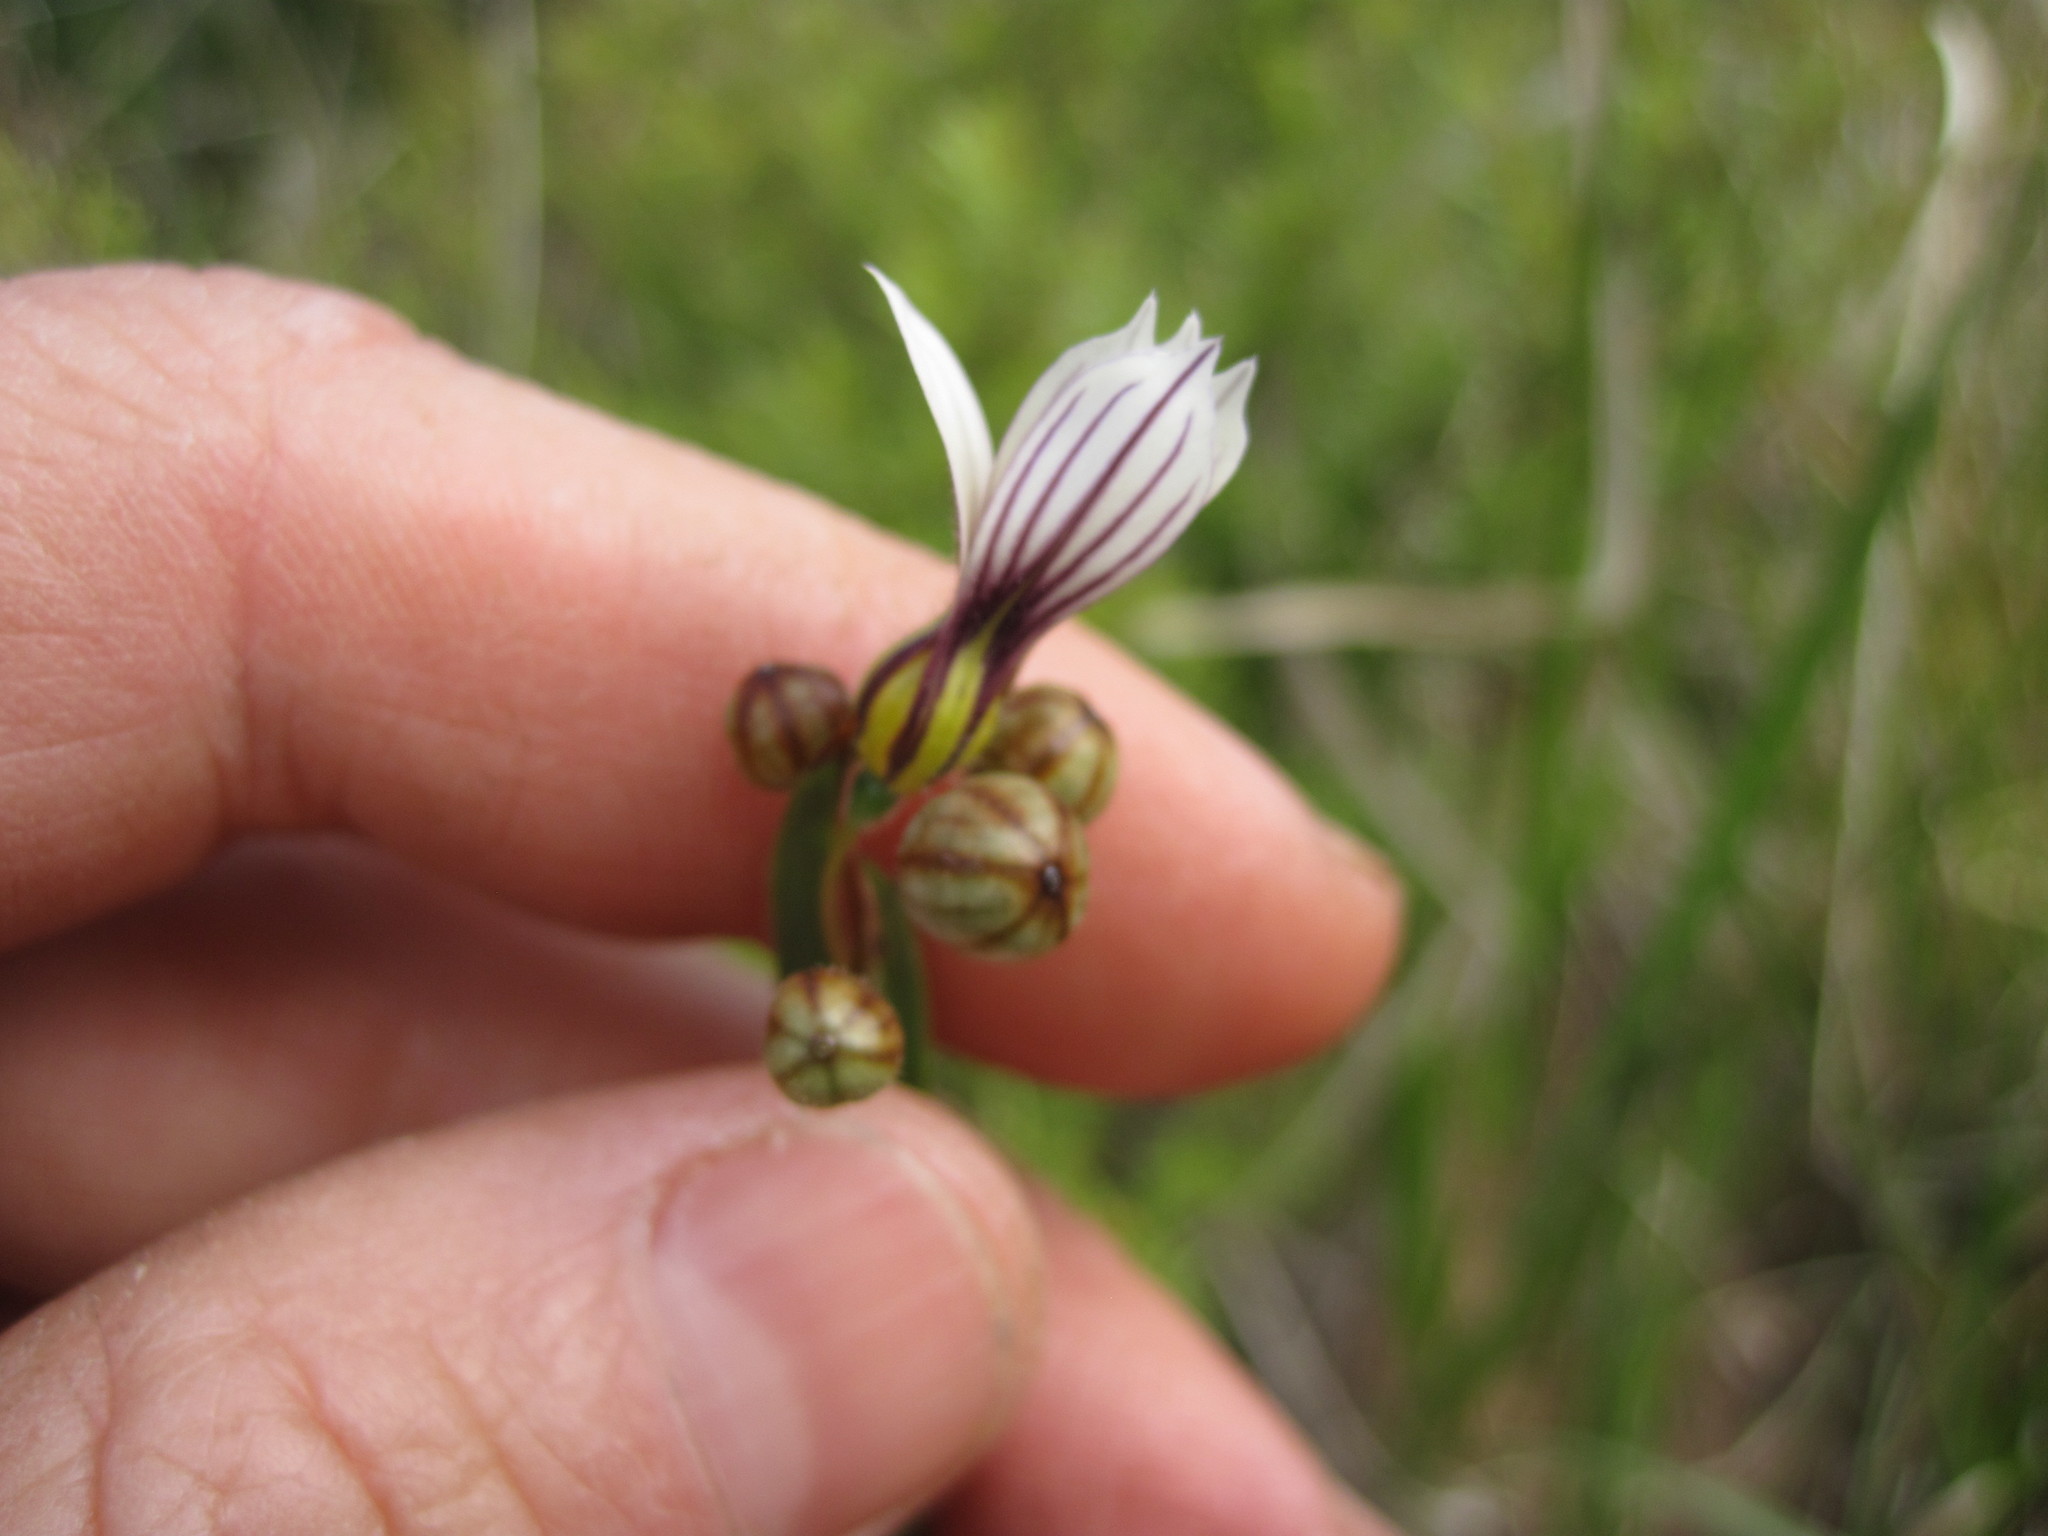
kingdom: Plantae
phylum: Tracheophyta
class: Liliopsida
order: Asparagales
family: Iridaceae
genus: Sisyrinchium
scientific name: Sisyrinchium micranthum
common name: Bermuda pigroot
